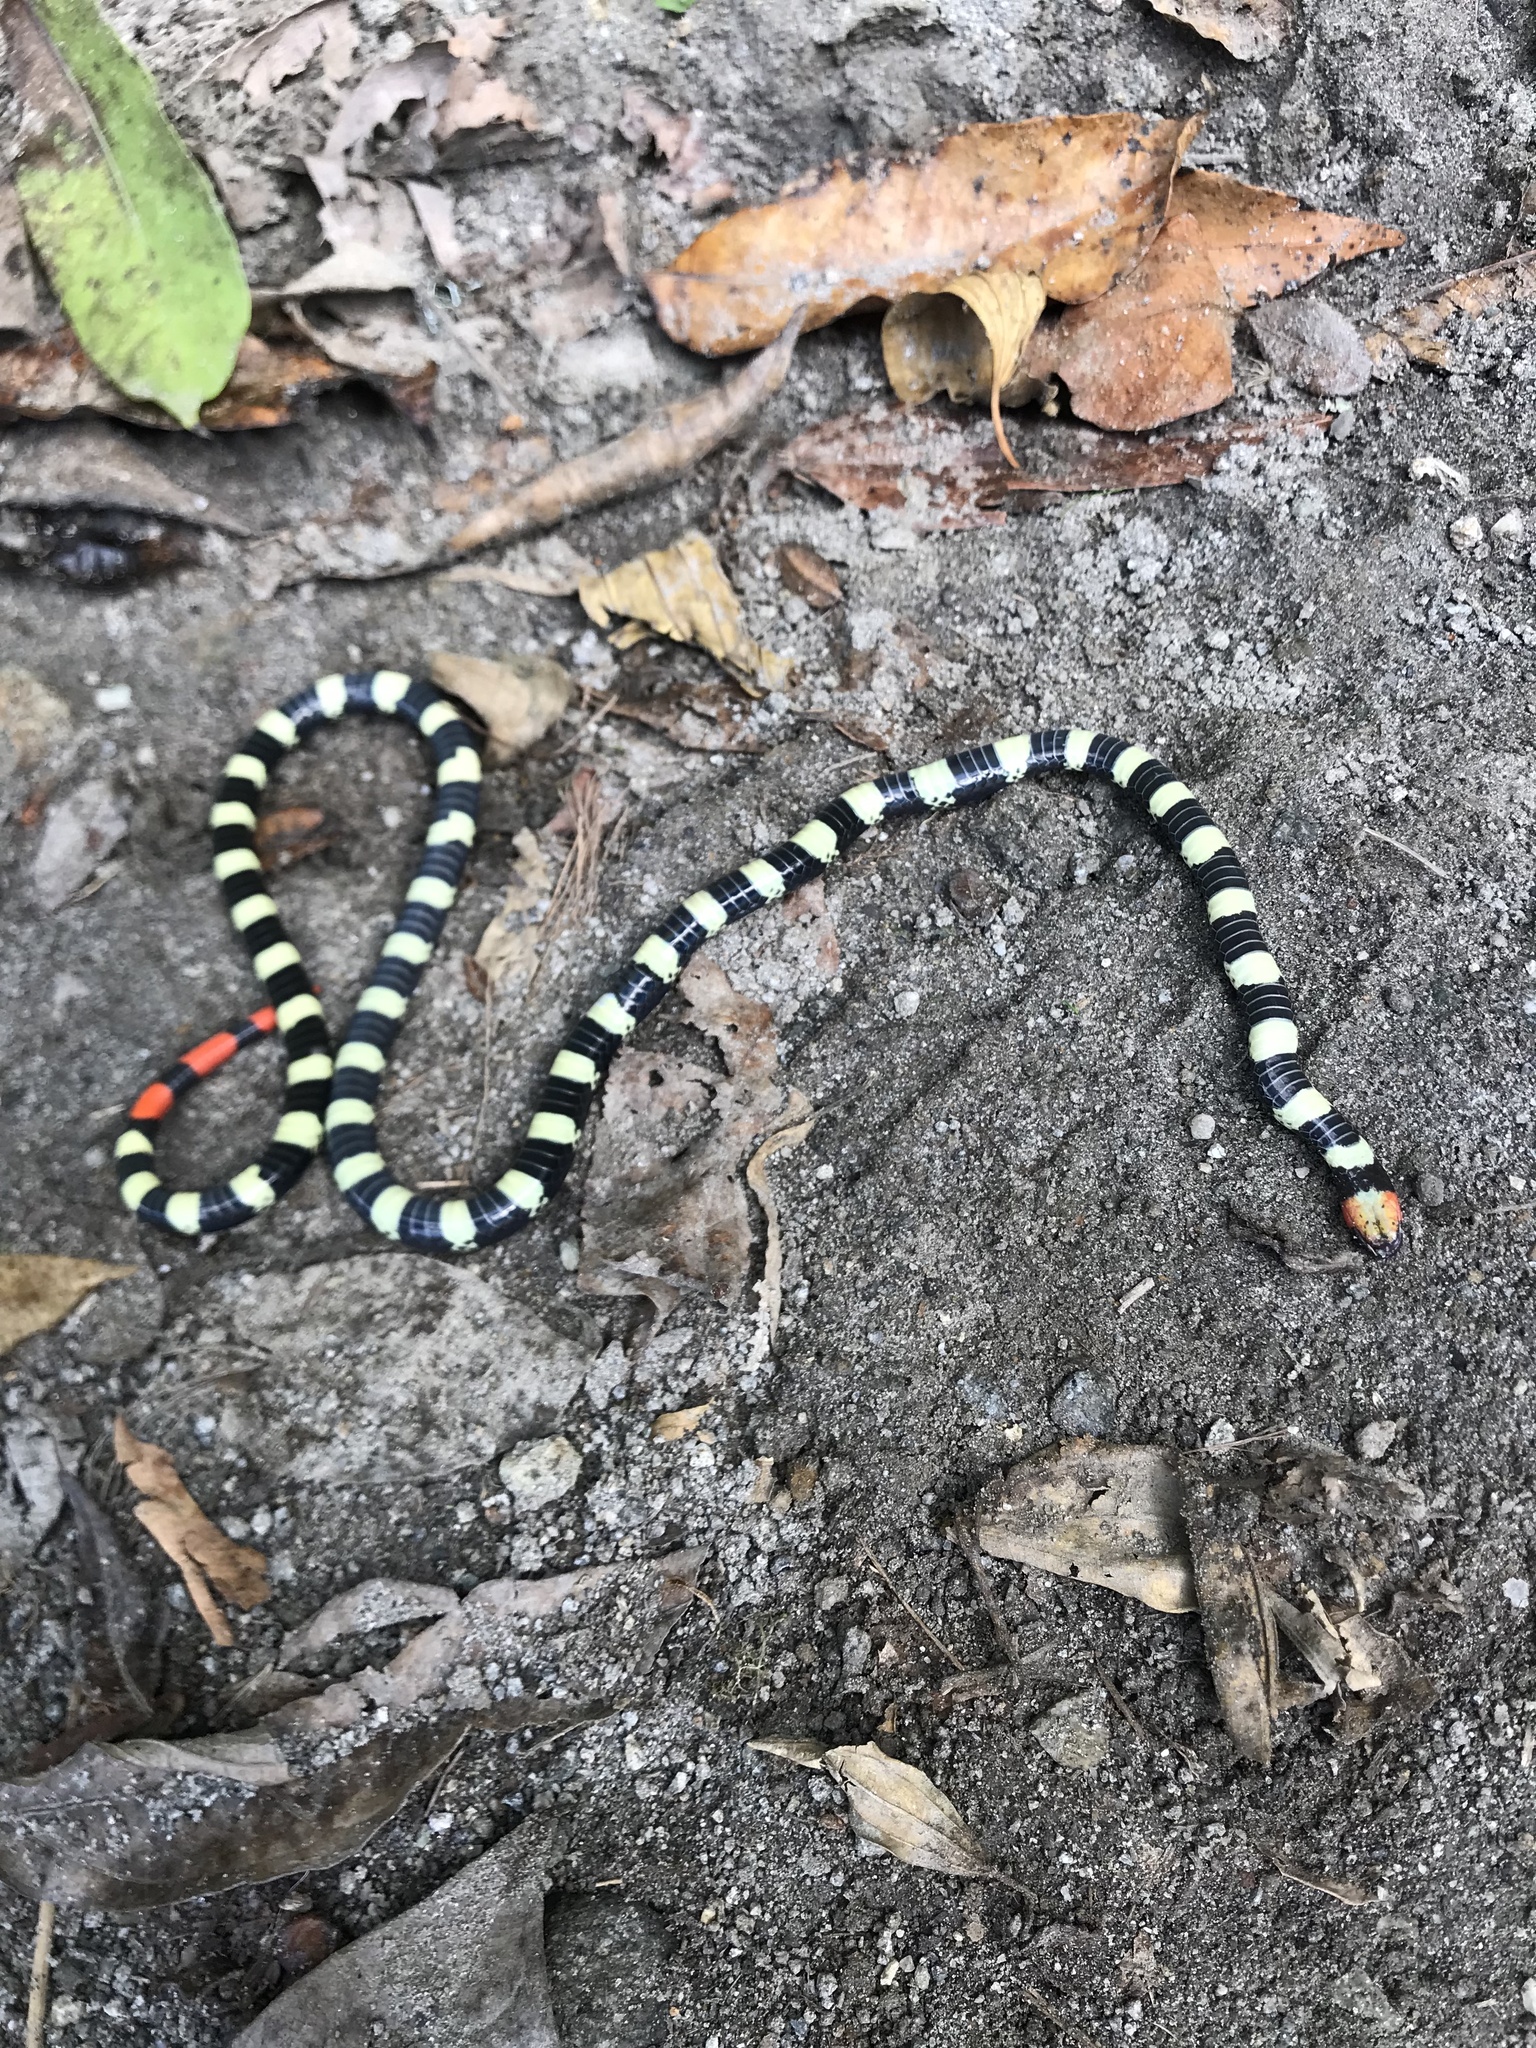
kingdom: Animalia
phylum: Chordata
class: Squamata
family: Elapidae
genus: Micrurus
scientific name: Micrurus mipartitus
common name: Redtail coral snake
